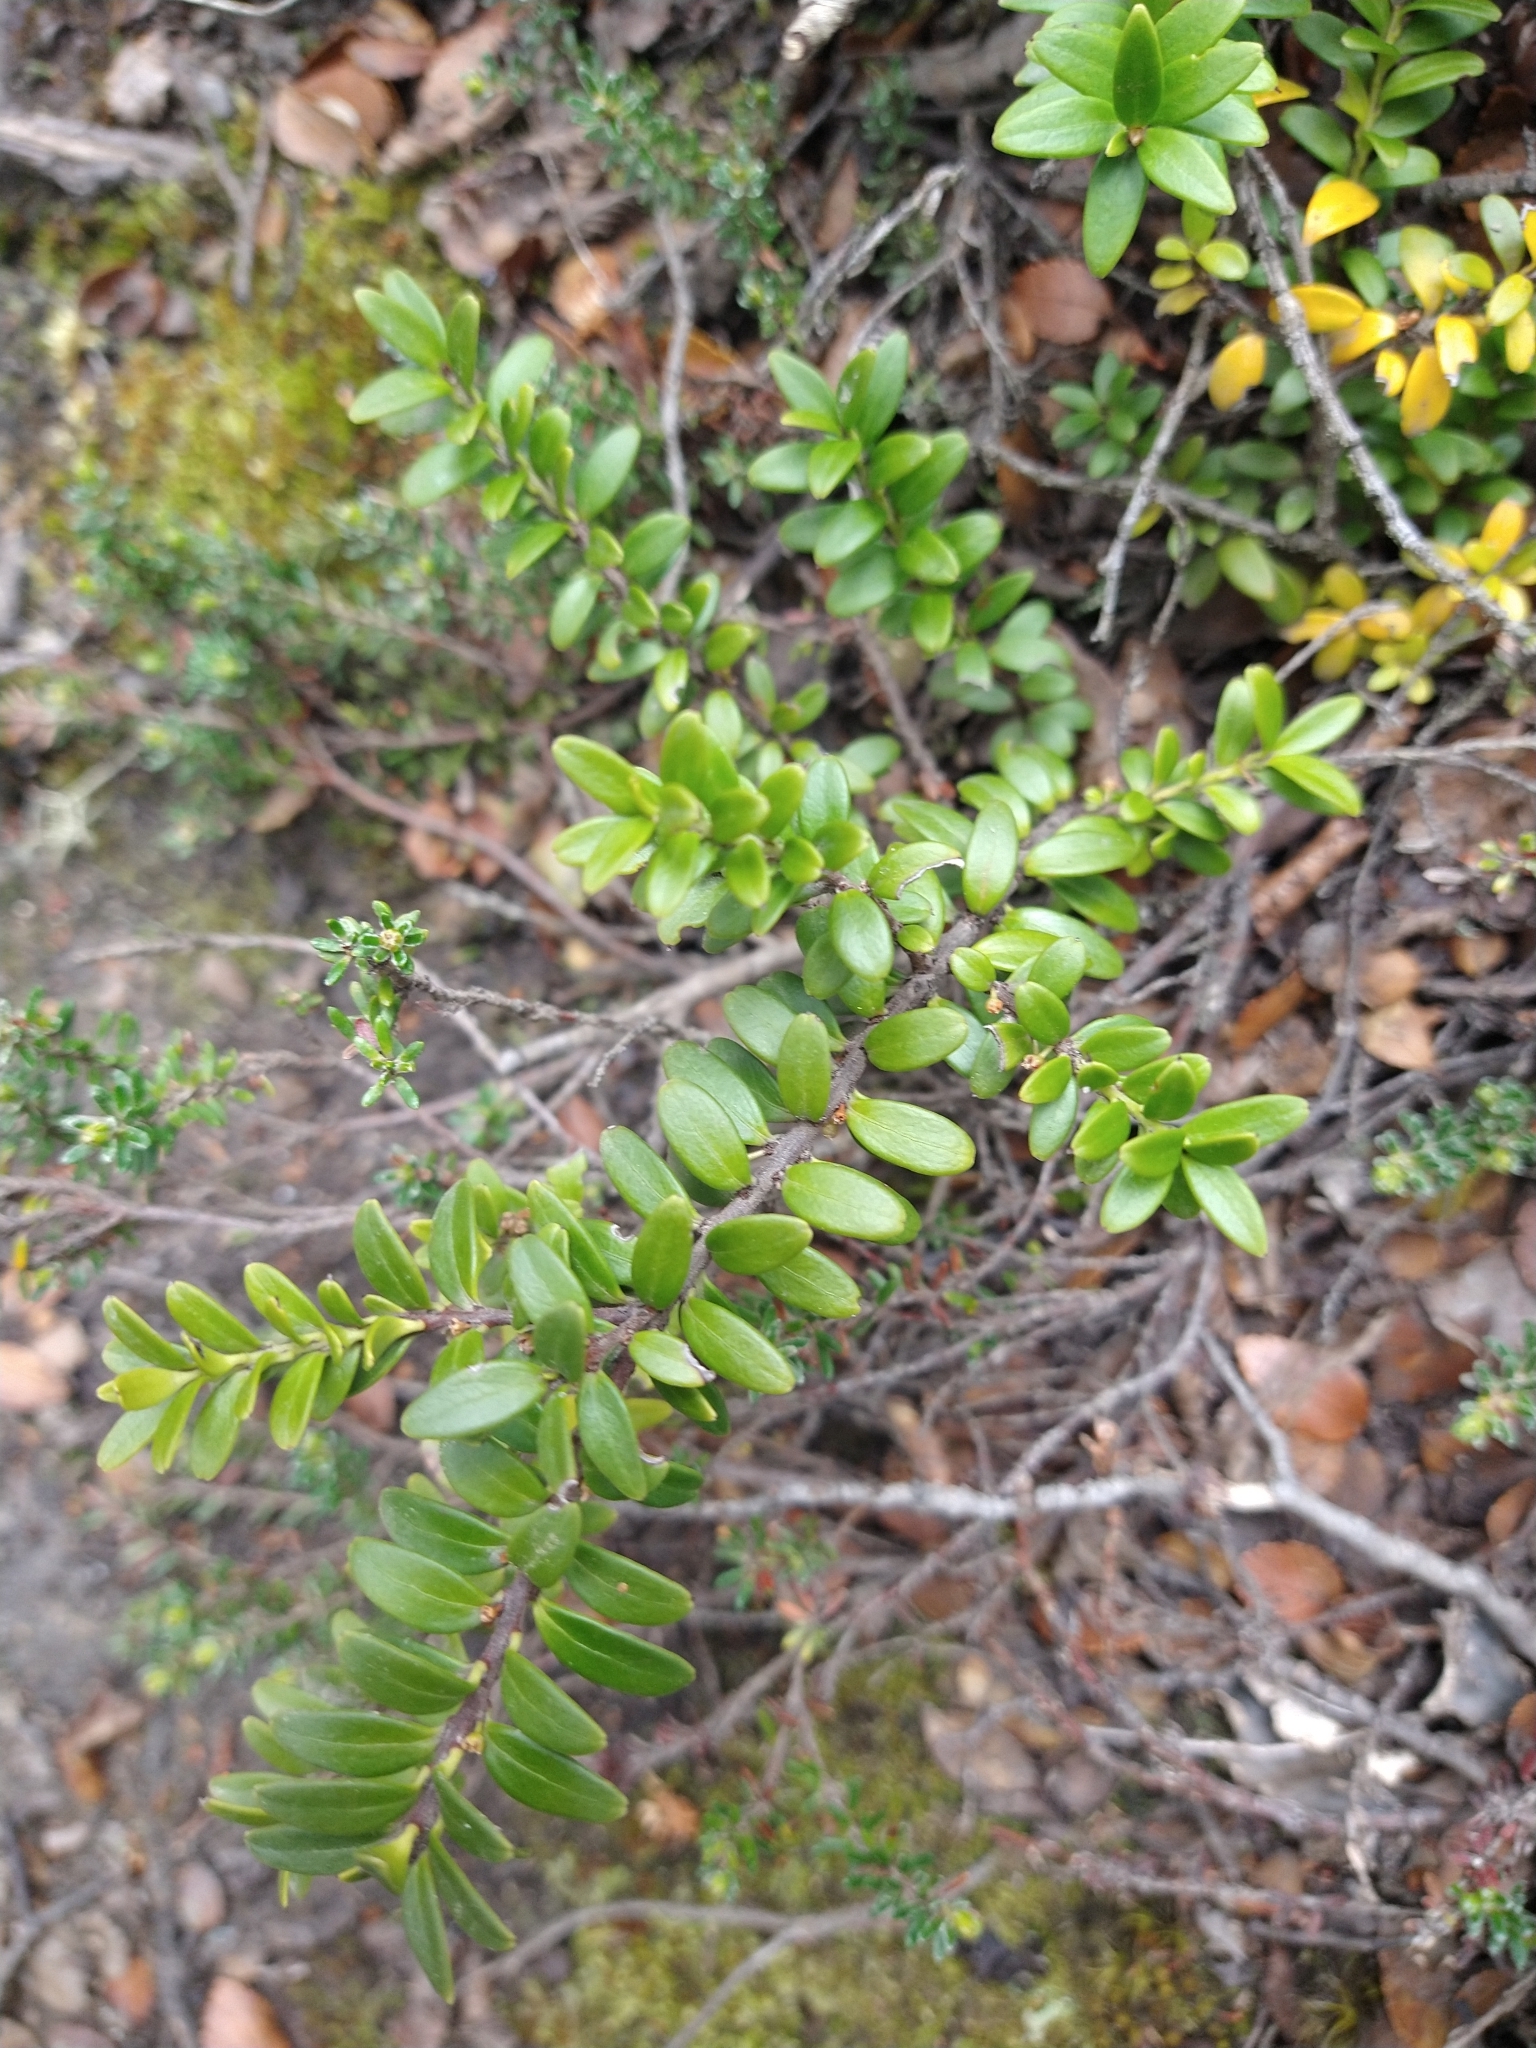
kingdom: Plantae
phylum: Tracheophyta
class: Magnoliopsida
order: Celastrales
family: Celastraceae
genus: Maytenus
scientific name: Maytenus disticha
